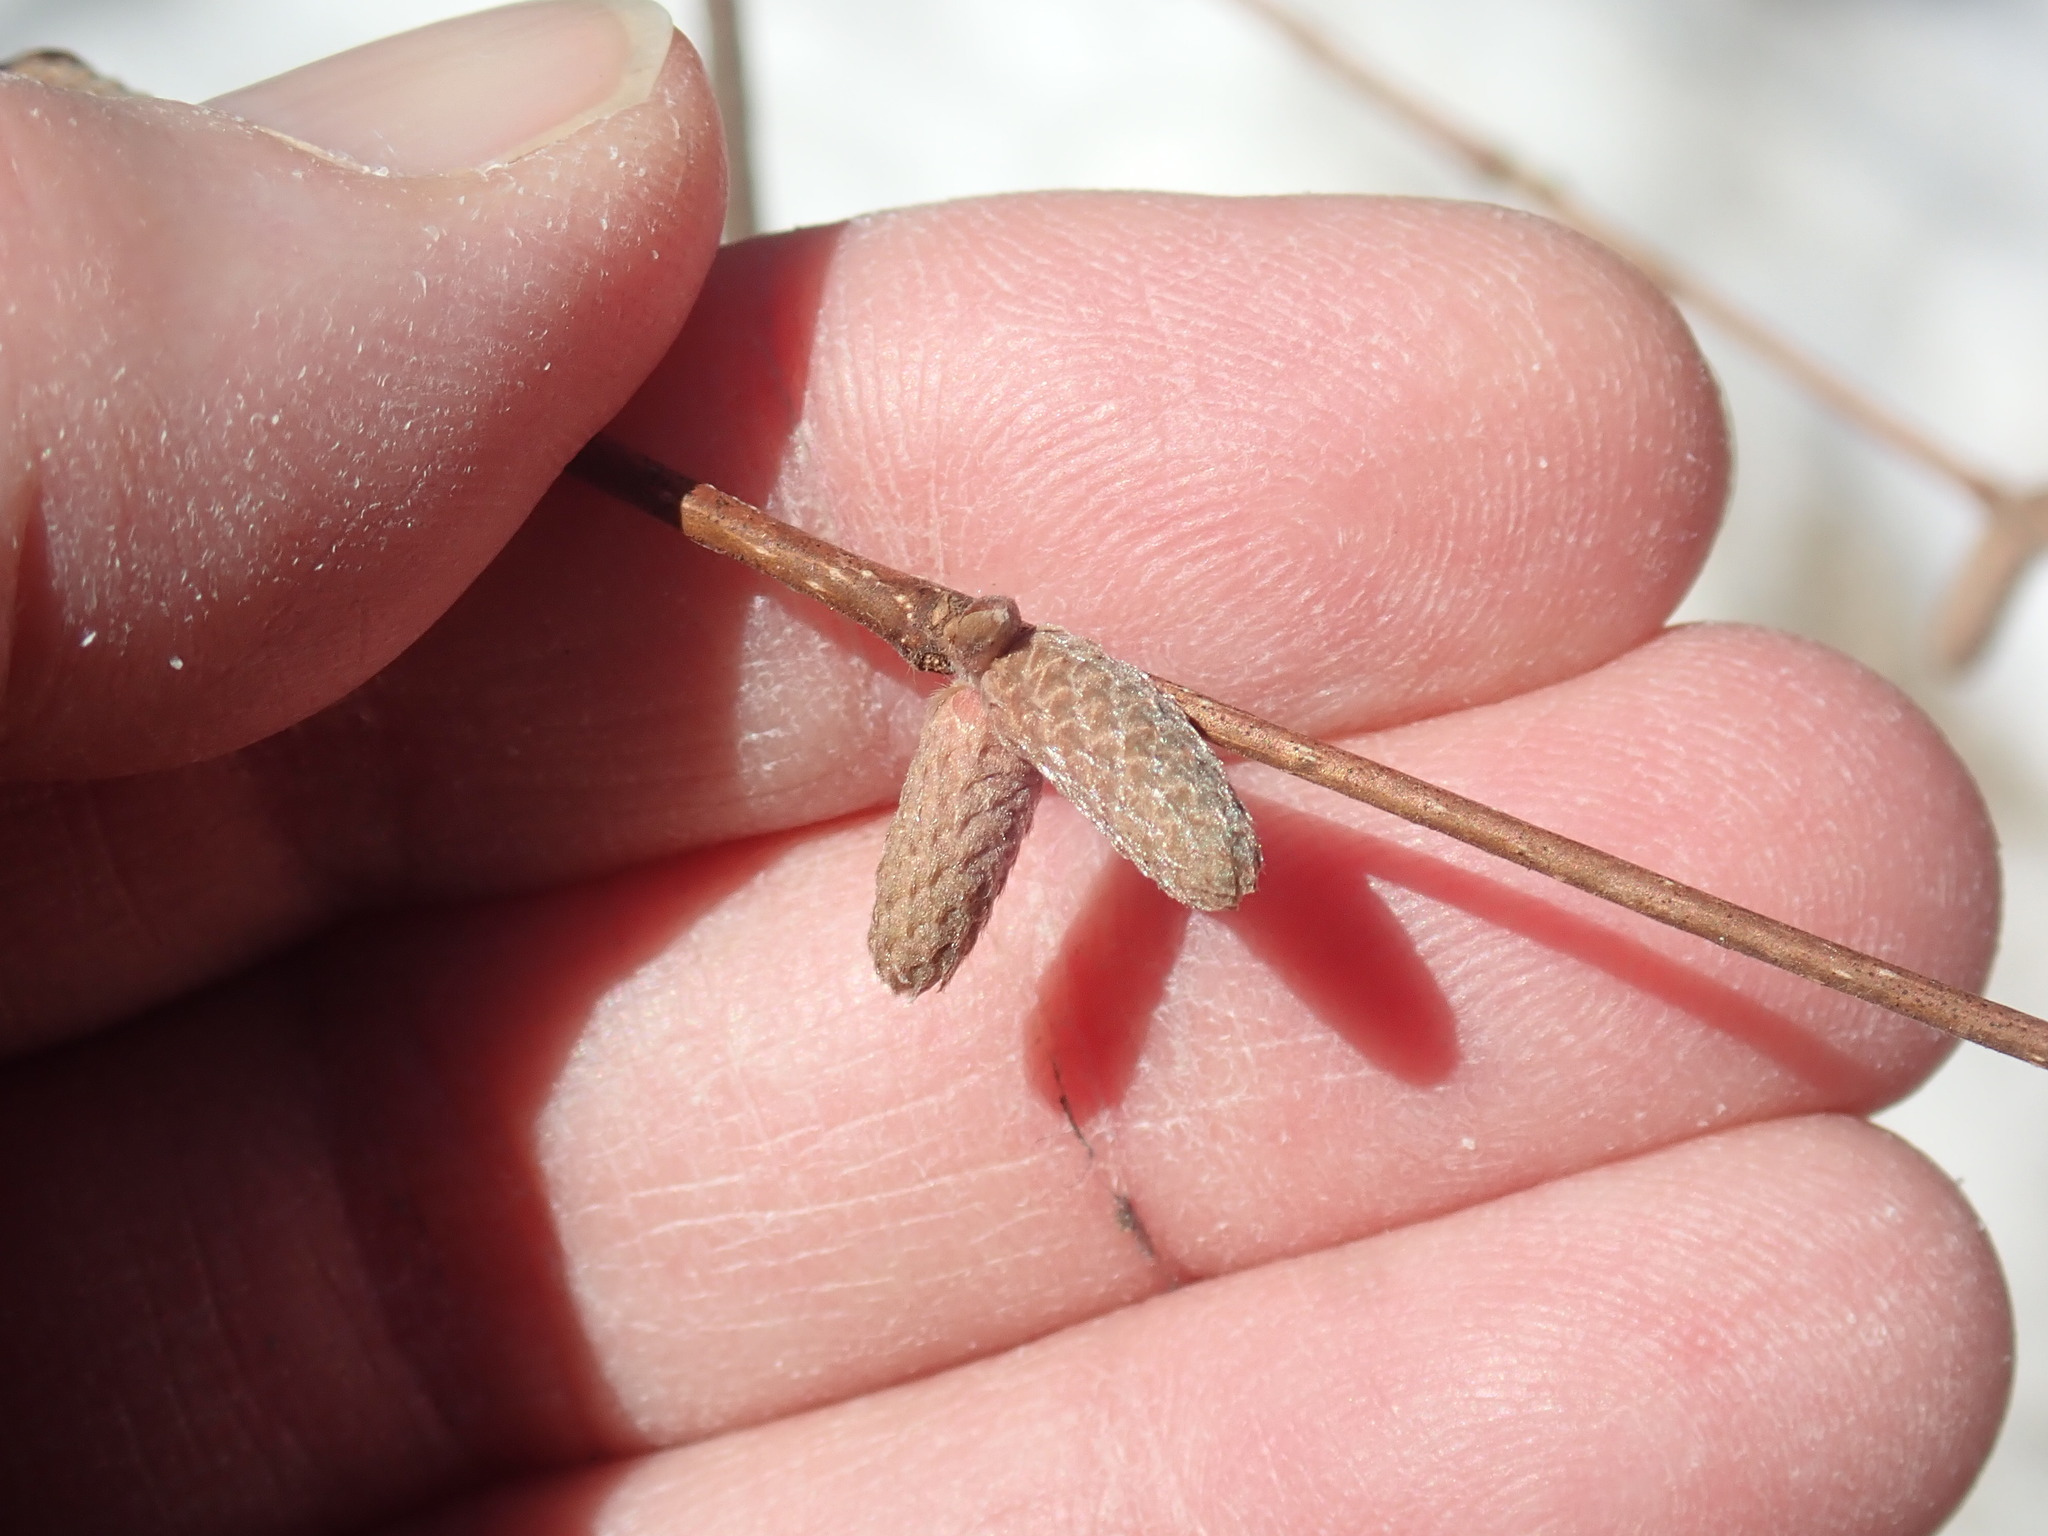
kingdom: Plantae
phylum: Tracheophyta
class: Magnoliopsida
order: Fagales
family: Betulaceae
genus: Corylus
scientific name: Corylus cornuta
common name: Beaked hazel
